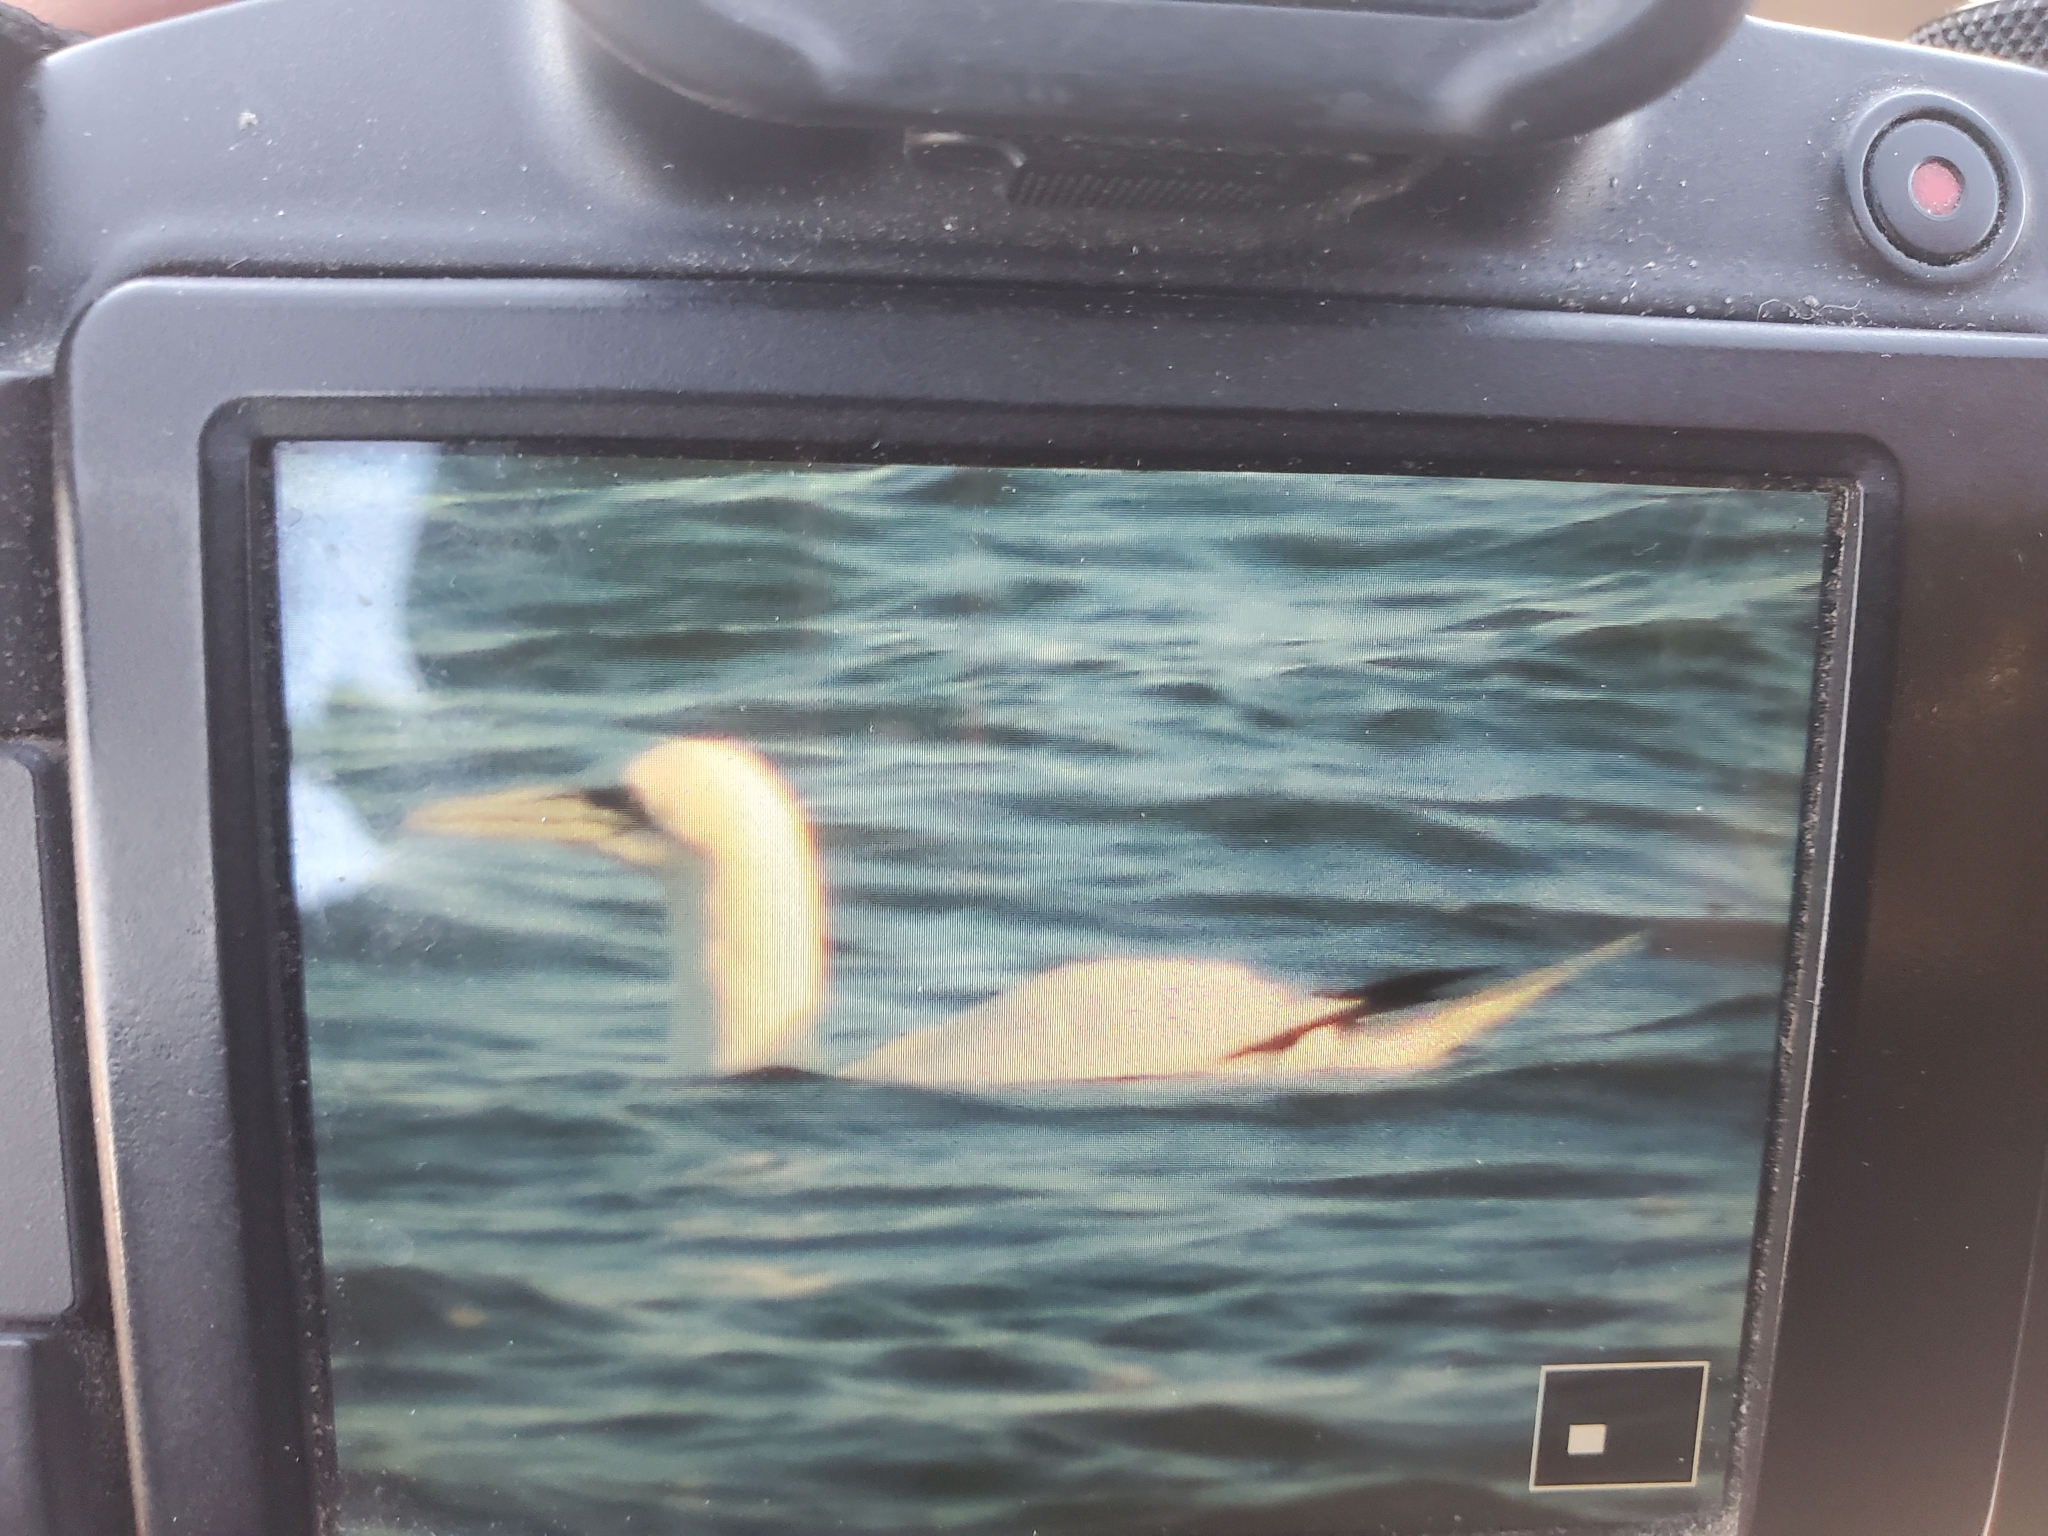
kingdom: Animalia
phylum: Chordata
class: Aves
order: Suliformes
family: Sulidae
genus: Morus
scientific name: Morus bassanus
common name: Northern gannet
